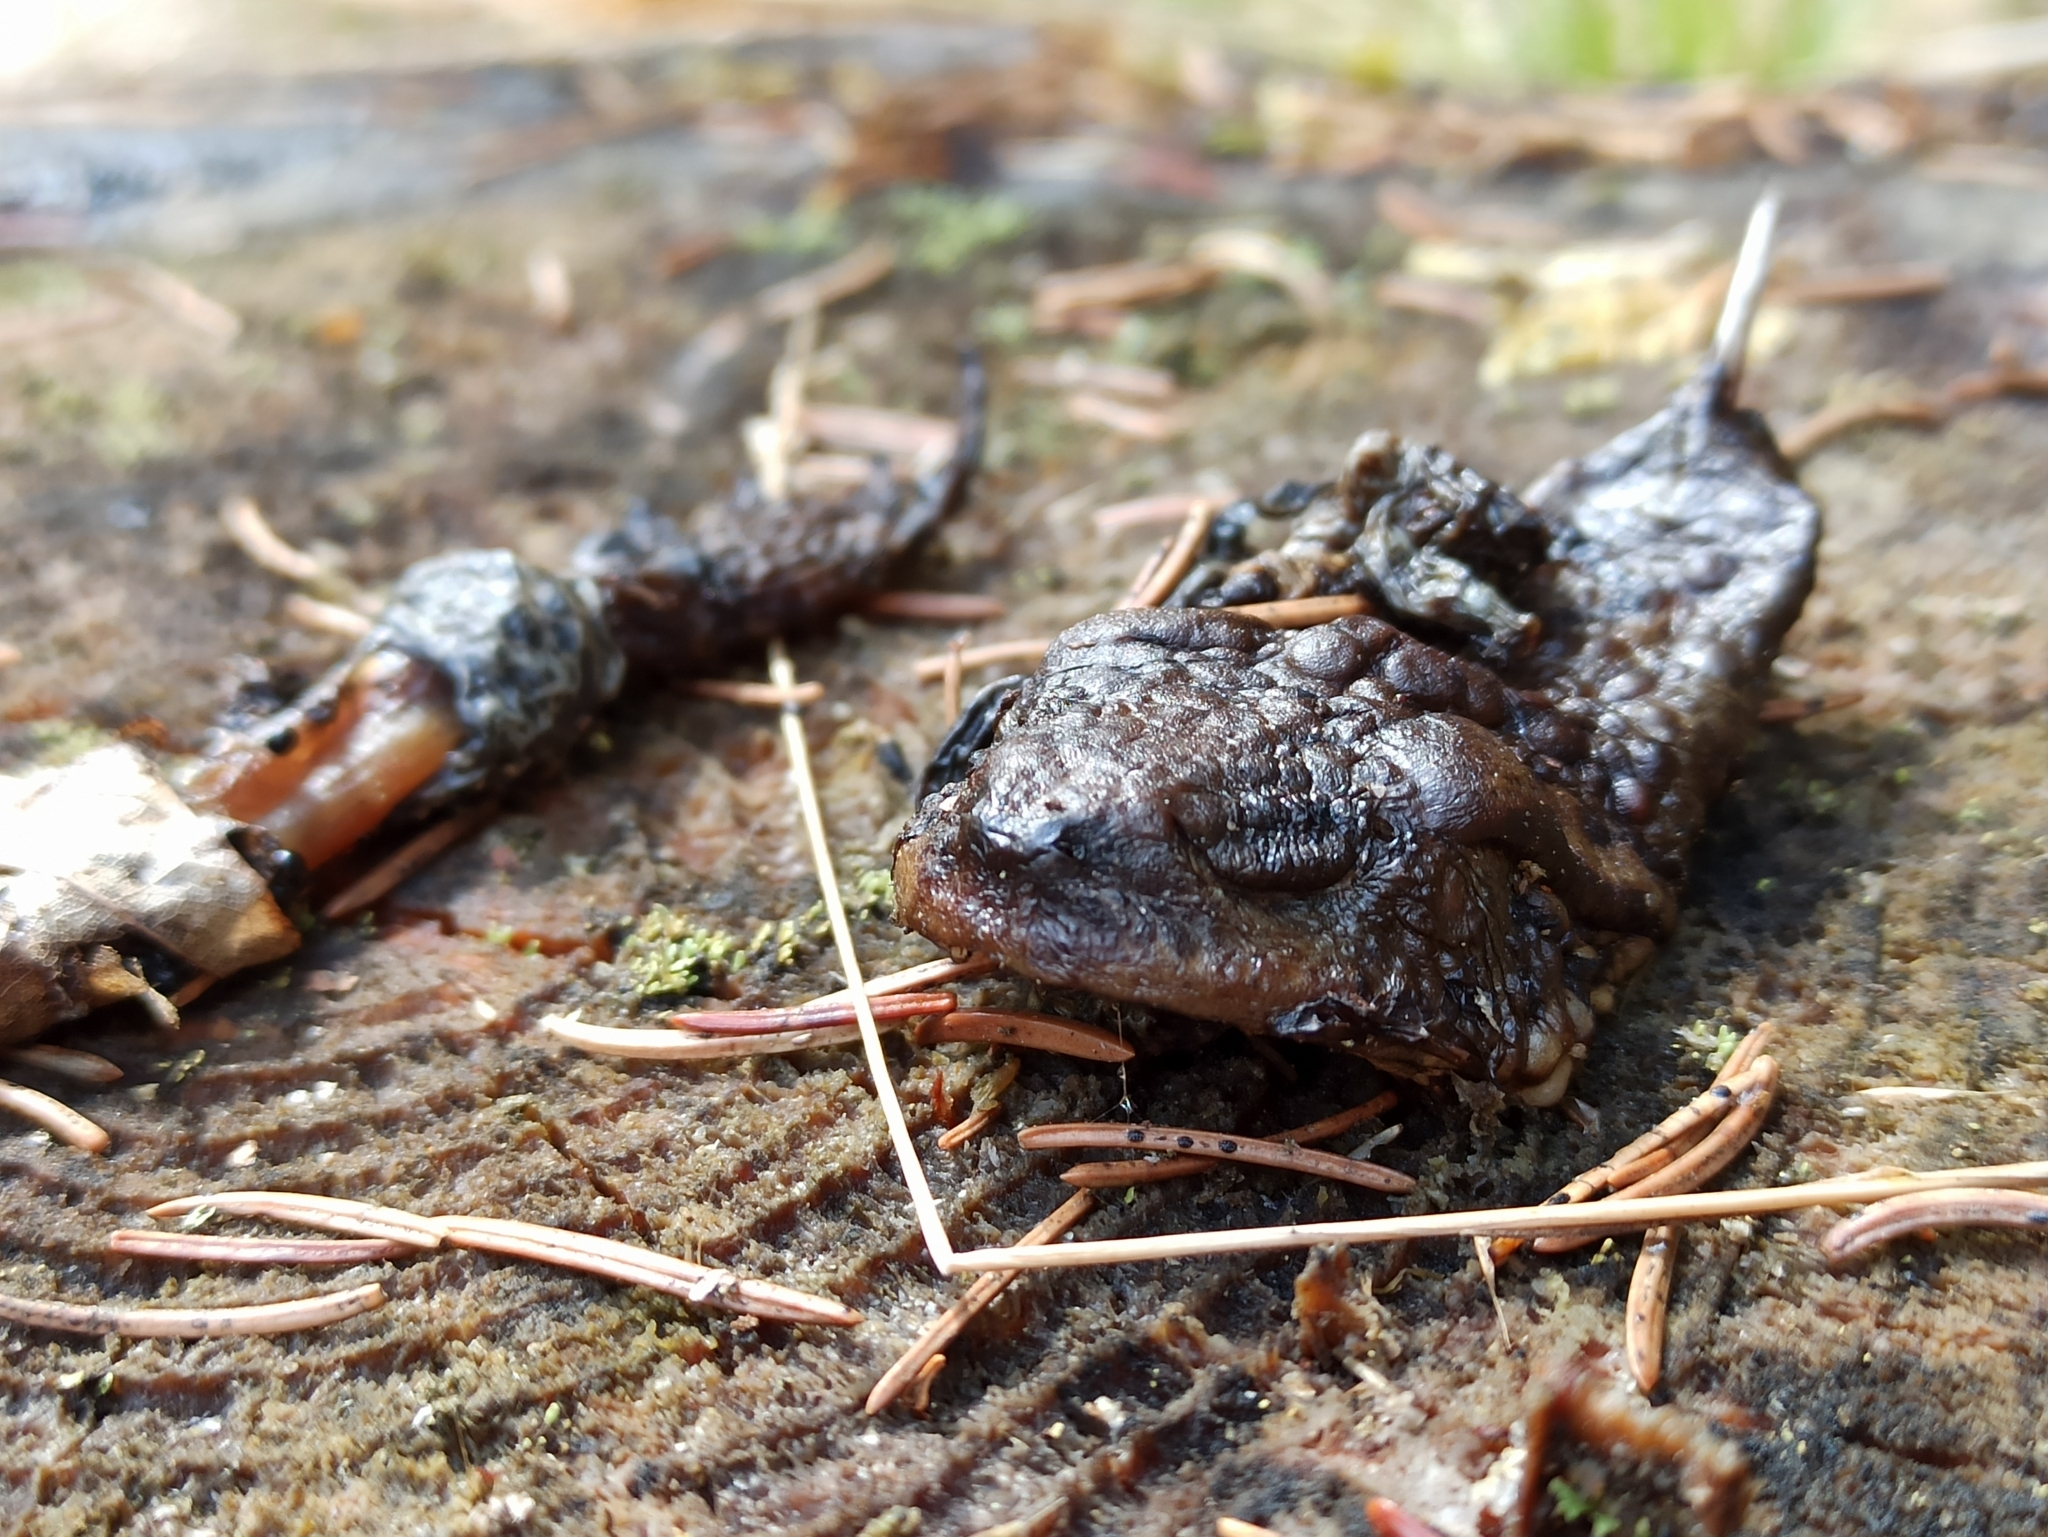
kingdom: Animalia
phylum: Chordata
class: Amphibia
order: Anura
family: Bufonidae
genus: Bufo
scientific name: Bufo bufo
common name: Common toad
